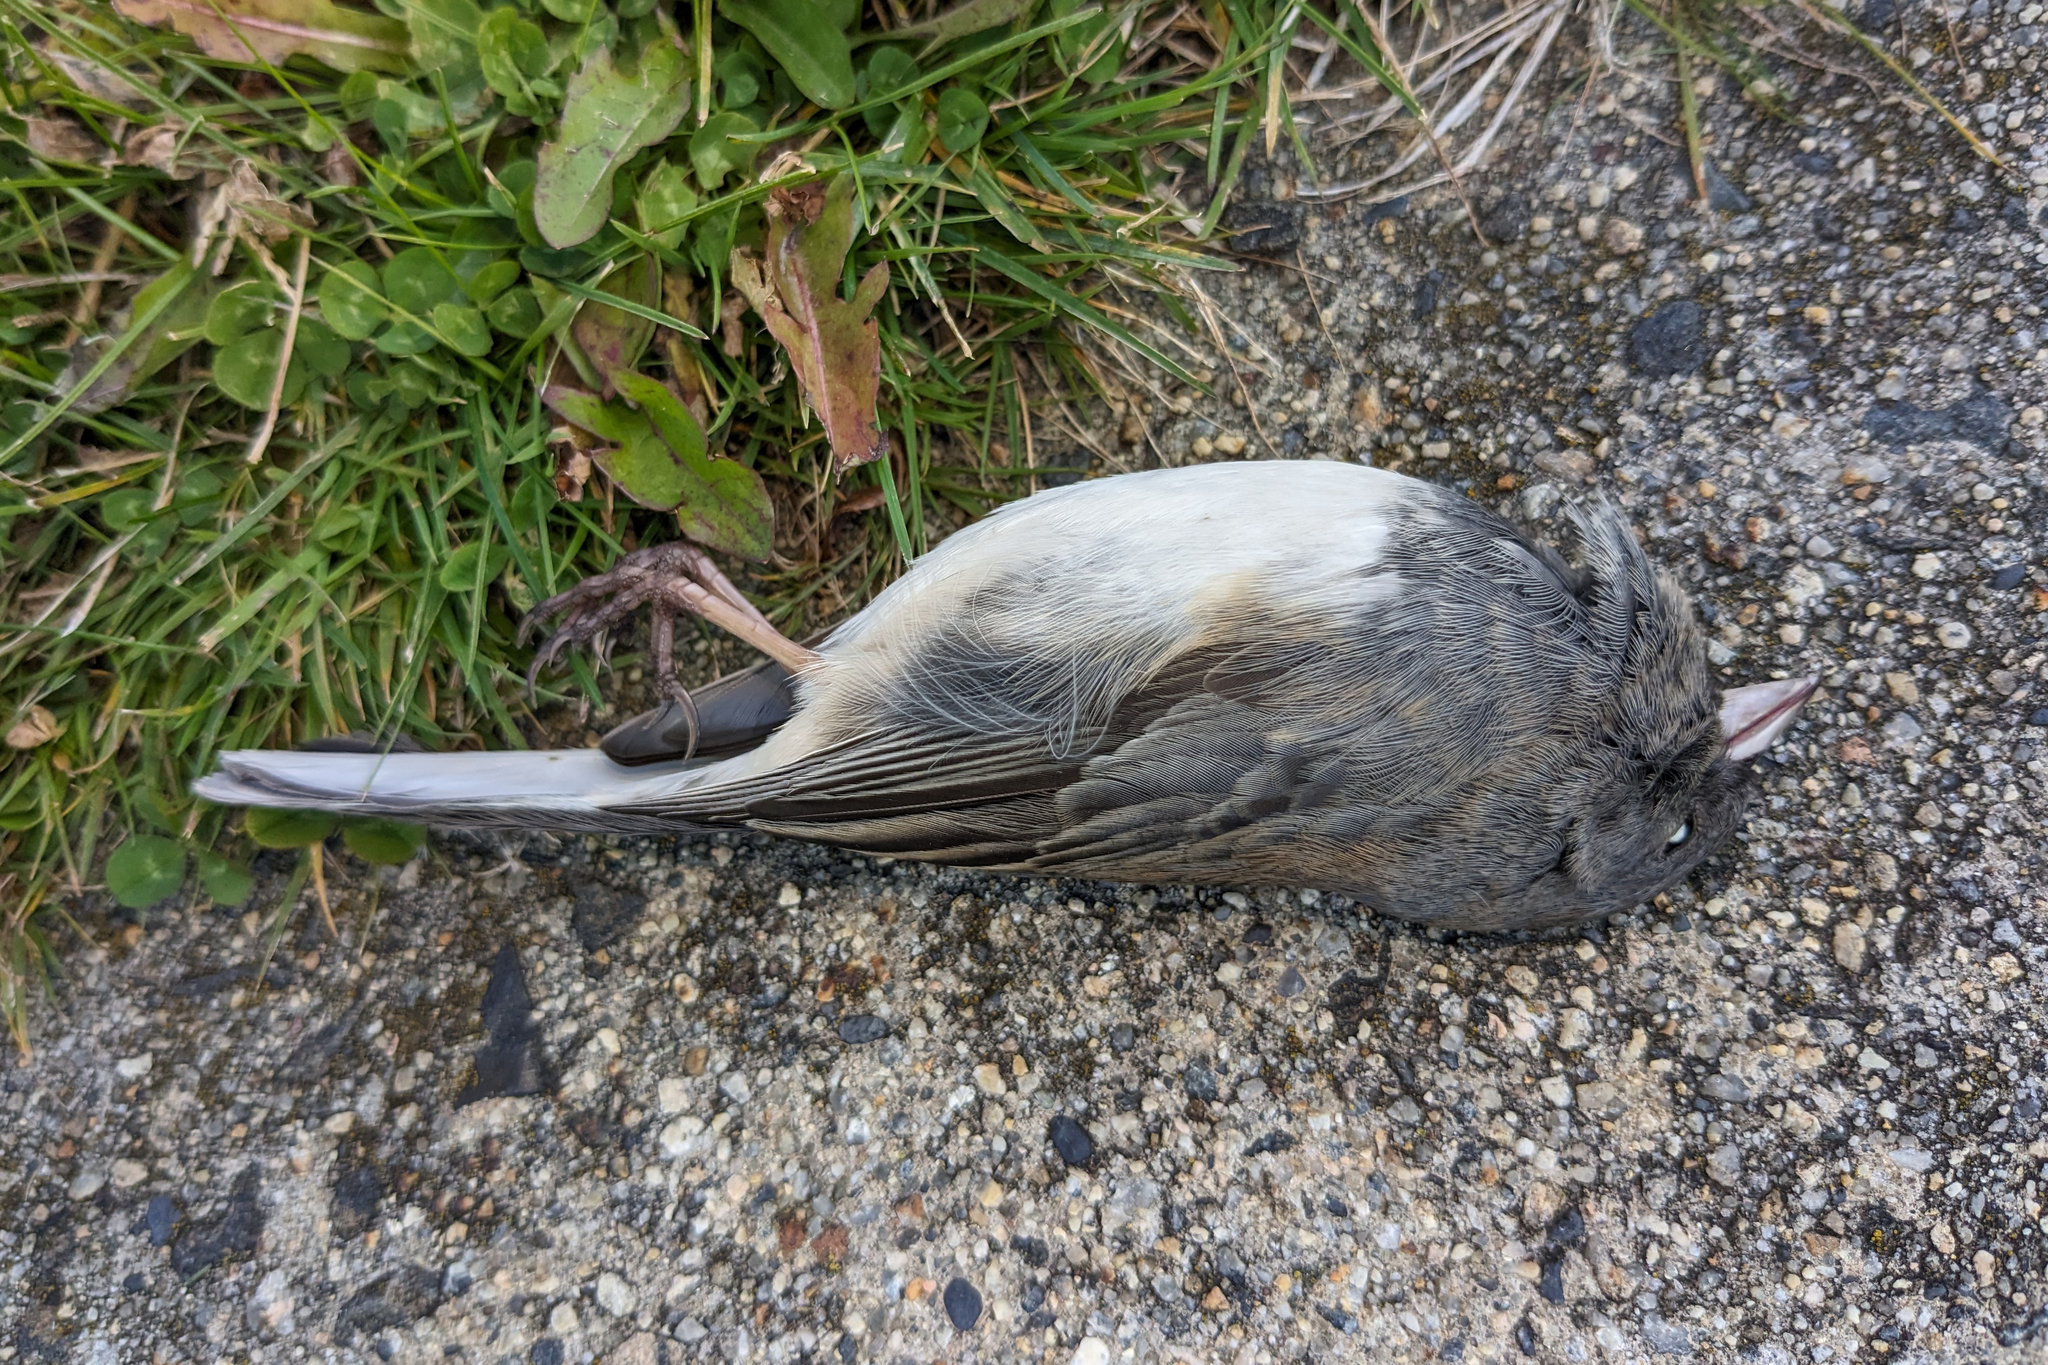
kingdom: Animalia
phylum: Chordata
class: Aves
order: Passeriformes
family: Passerellidae
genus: Junco
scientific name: Junco hyemalis
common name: Dark-eyed junco
